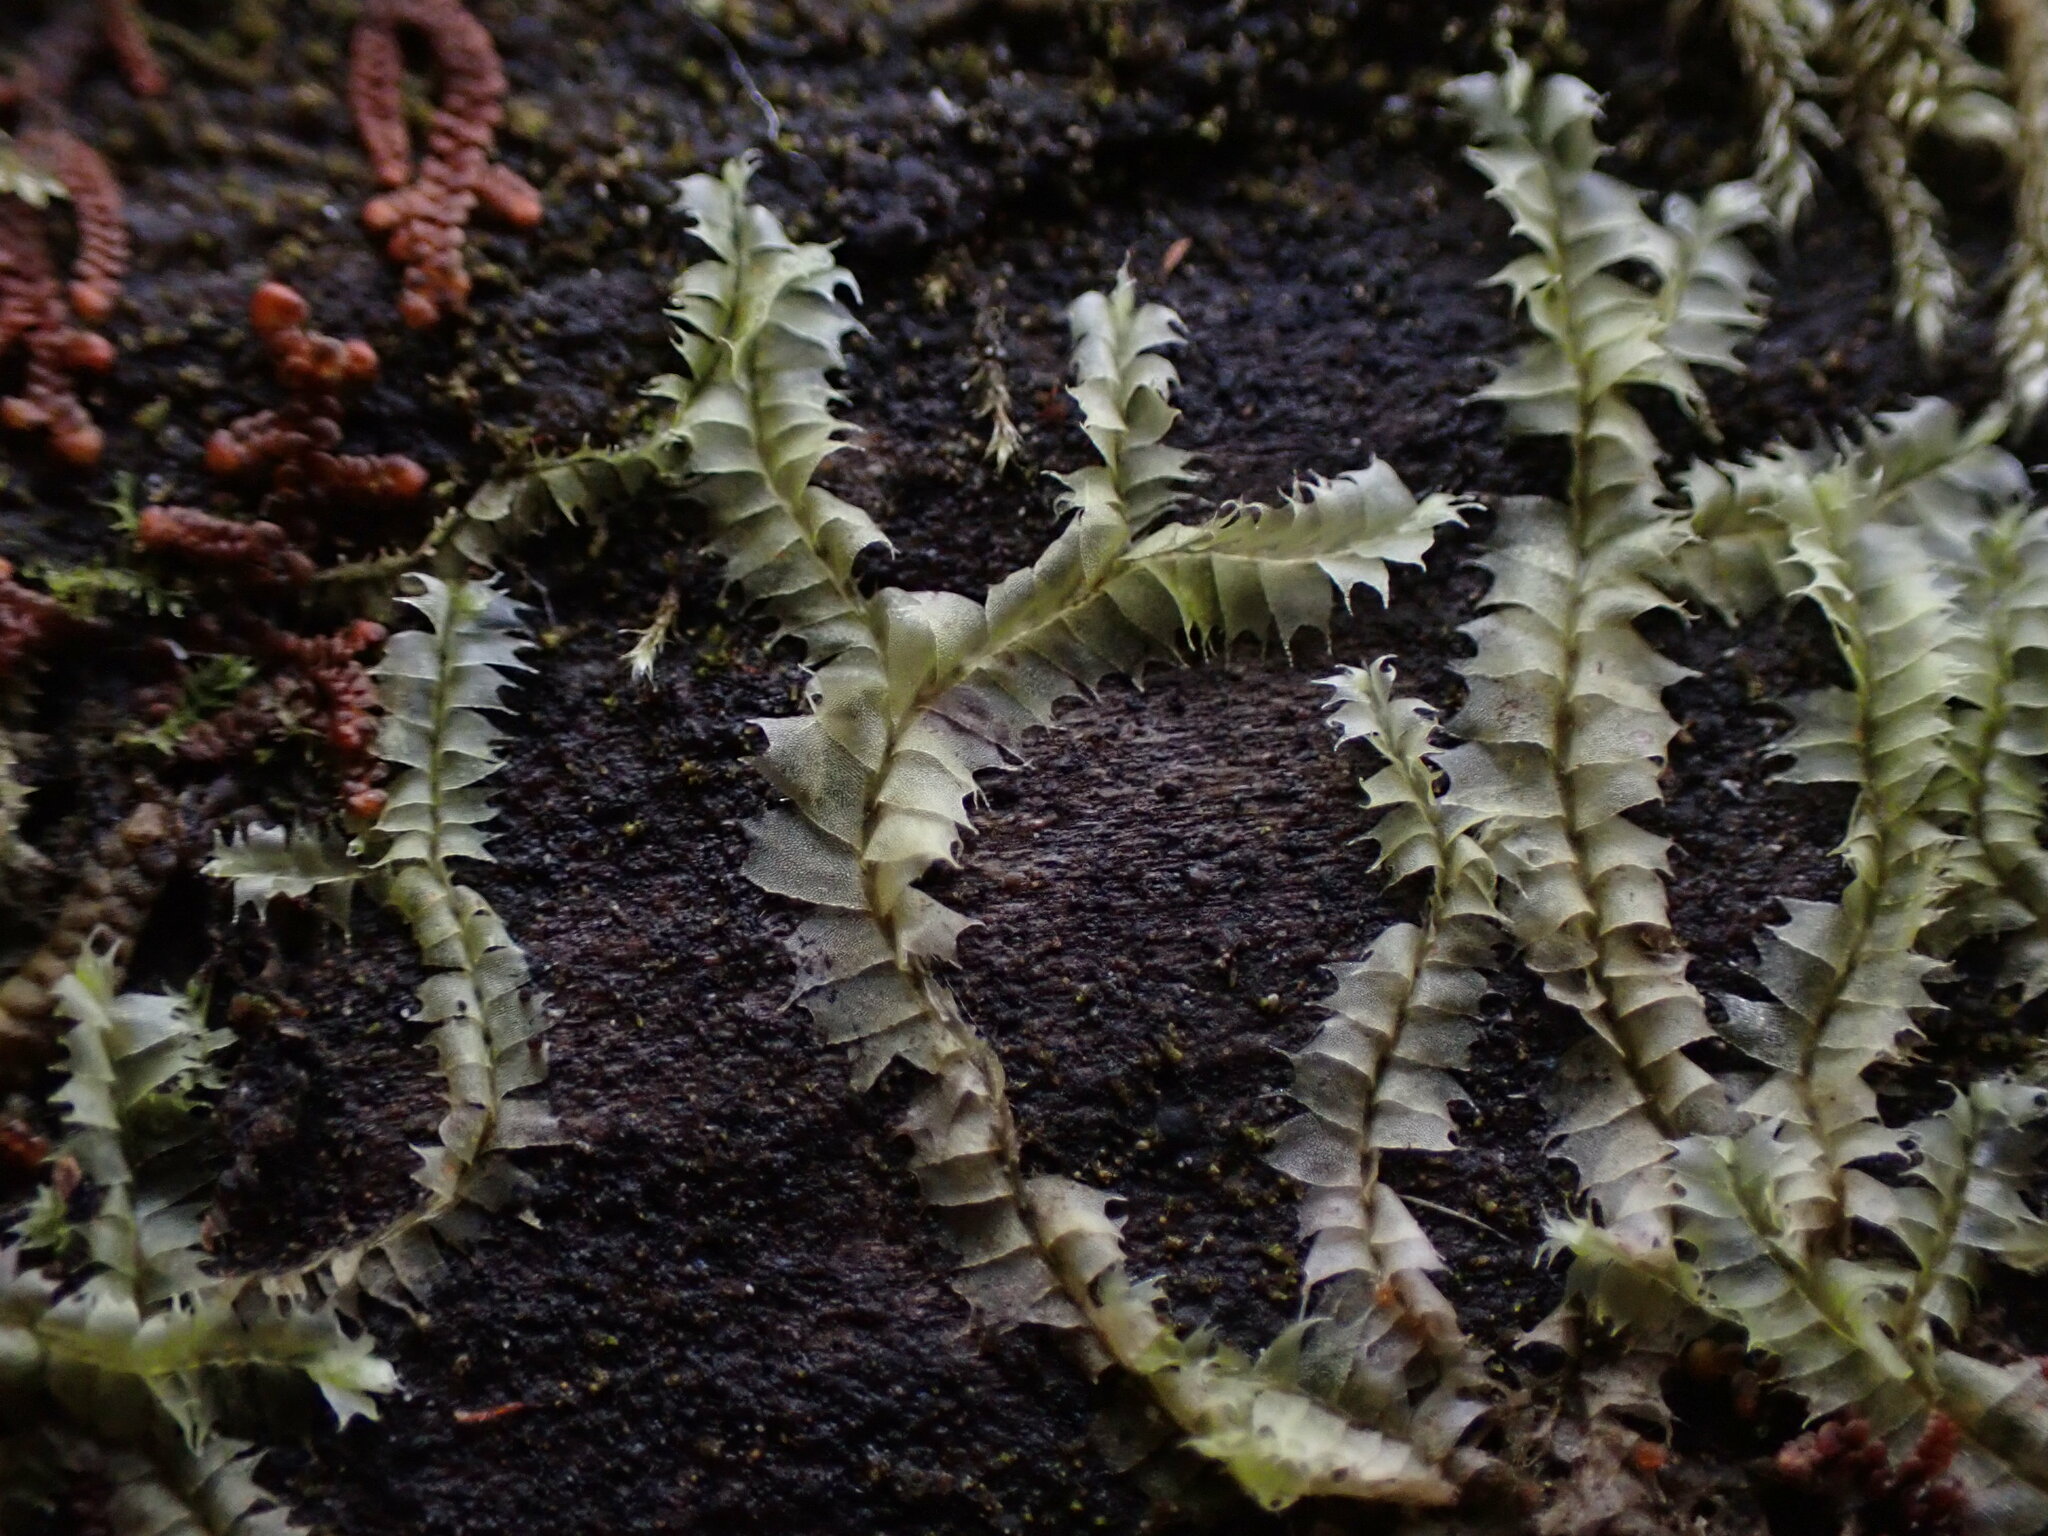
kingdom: Plantae
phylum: Marchantiophyta
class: Jungermanniopsida
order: Jungermanniales
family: Lophocoleaceae
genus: Lophocolea
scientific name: Lophocolea bidentata
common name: Bifid crestwort
